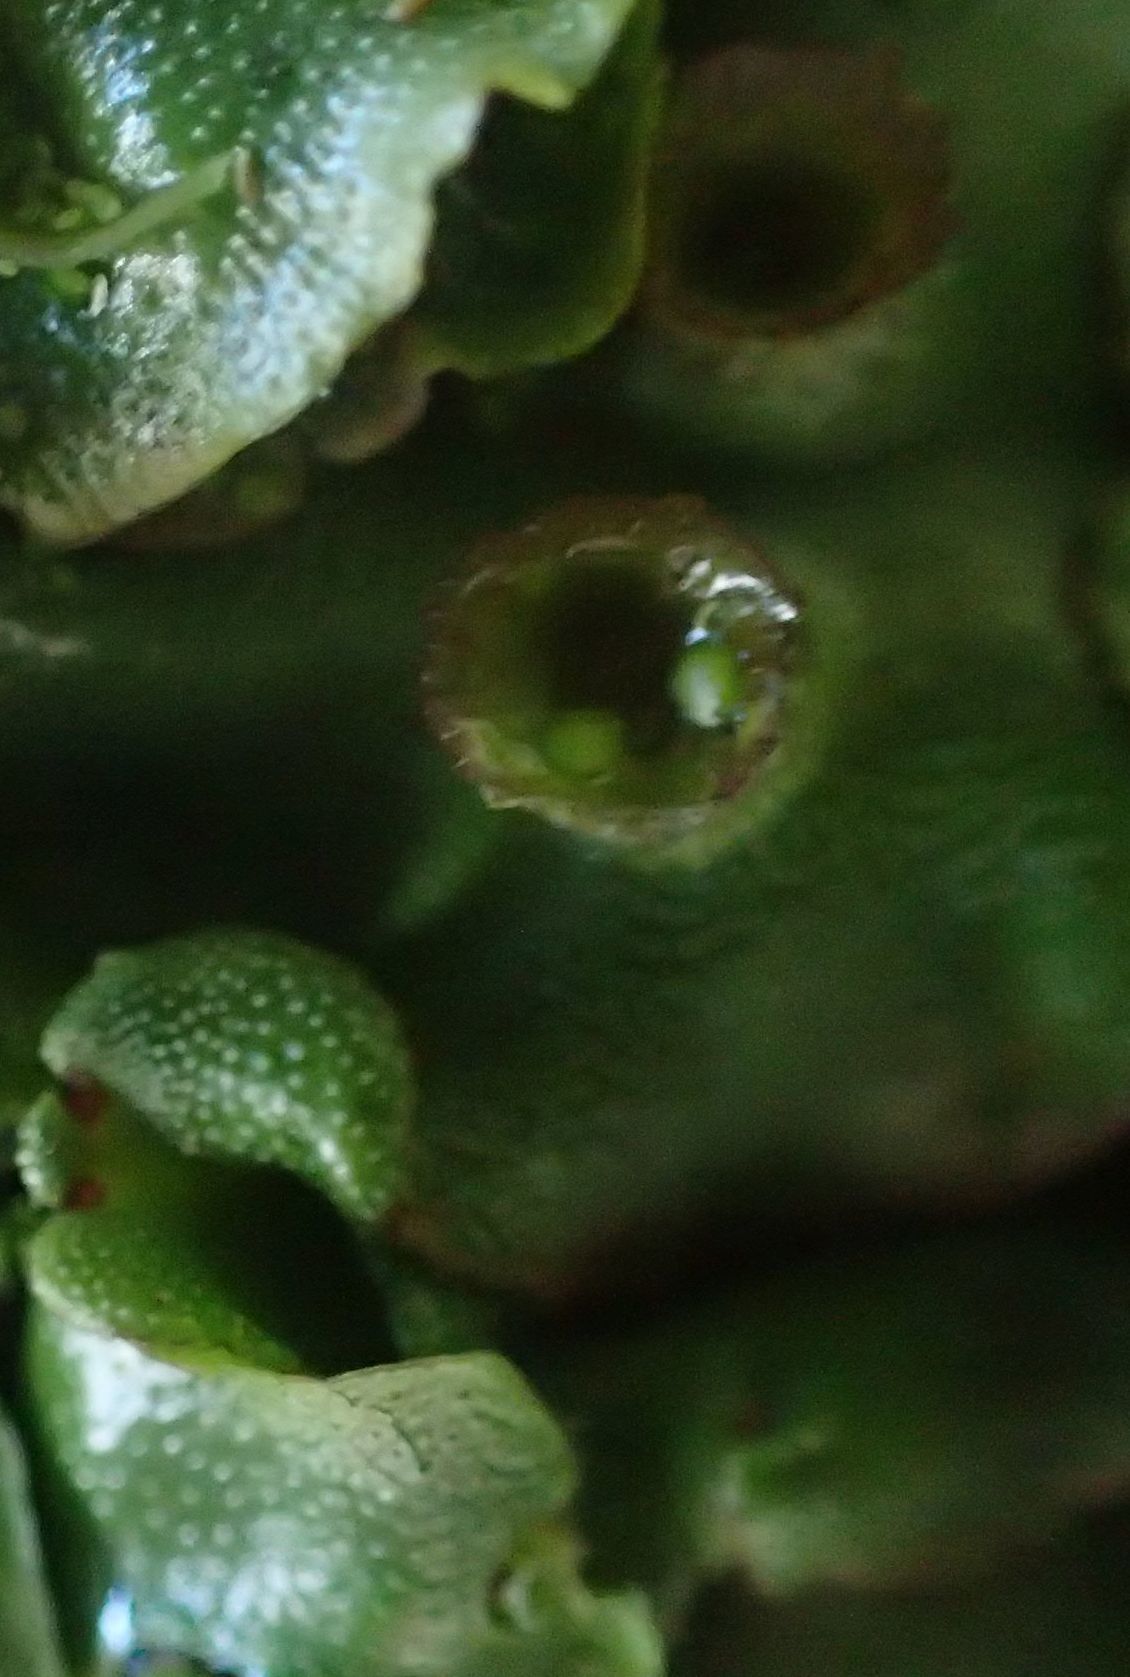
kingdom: Plantae
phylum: Marchantiophyta
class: Marchantiopsida
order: Marchantiales
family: Marchantiaceae
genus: Marchantia
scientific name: Marchantia berteroana
